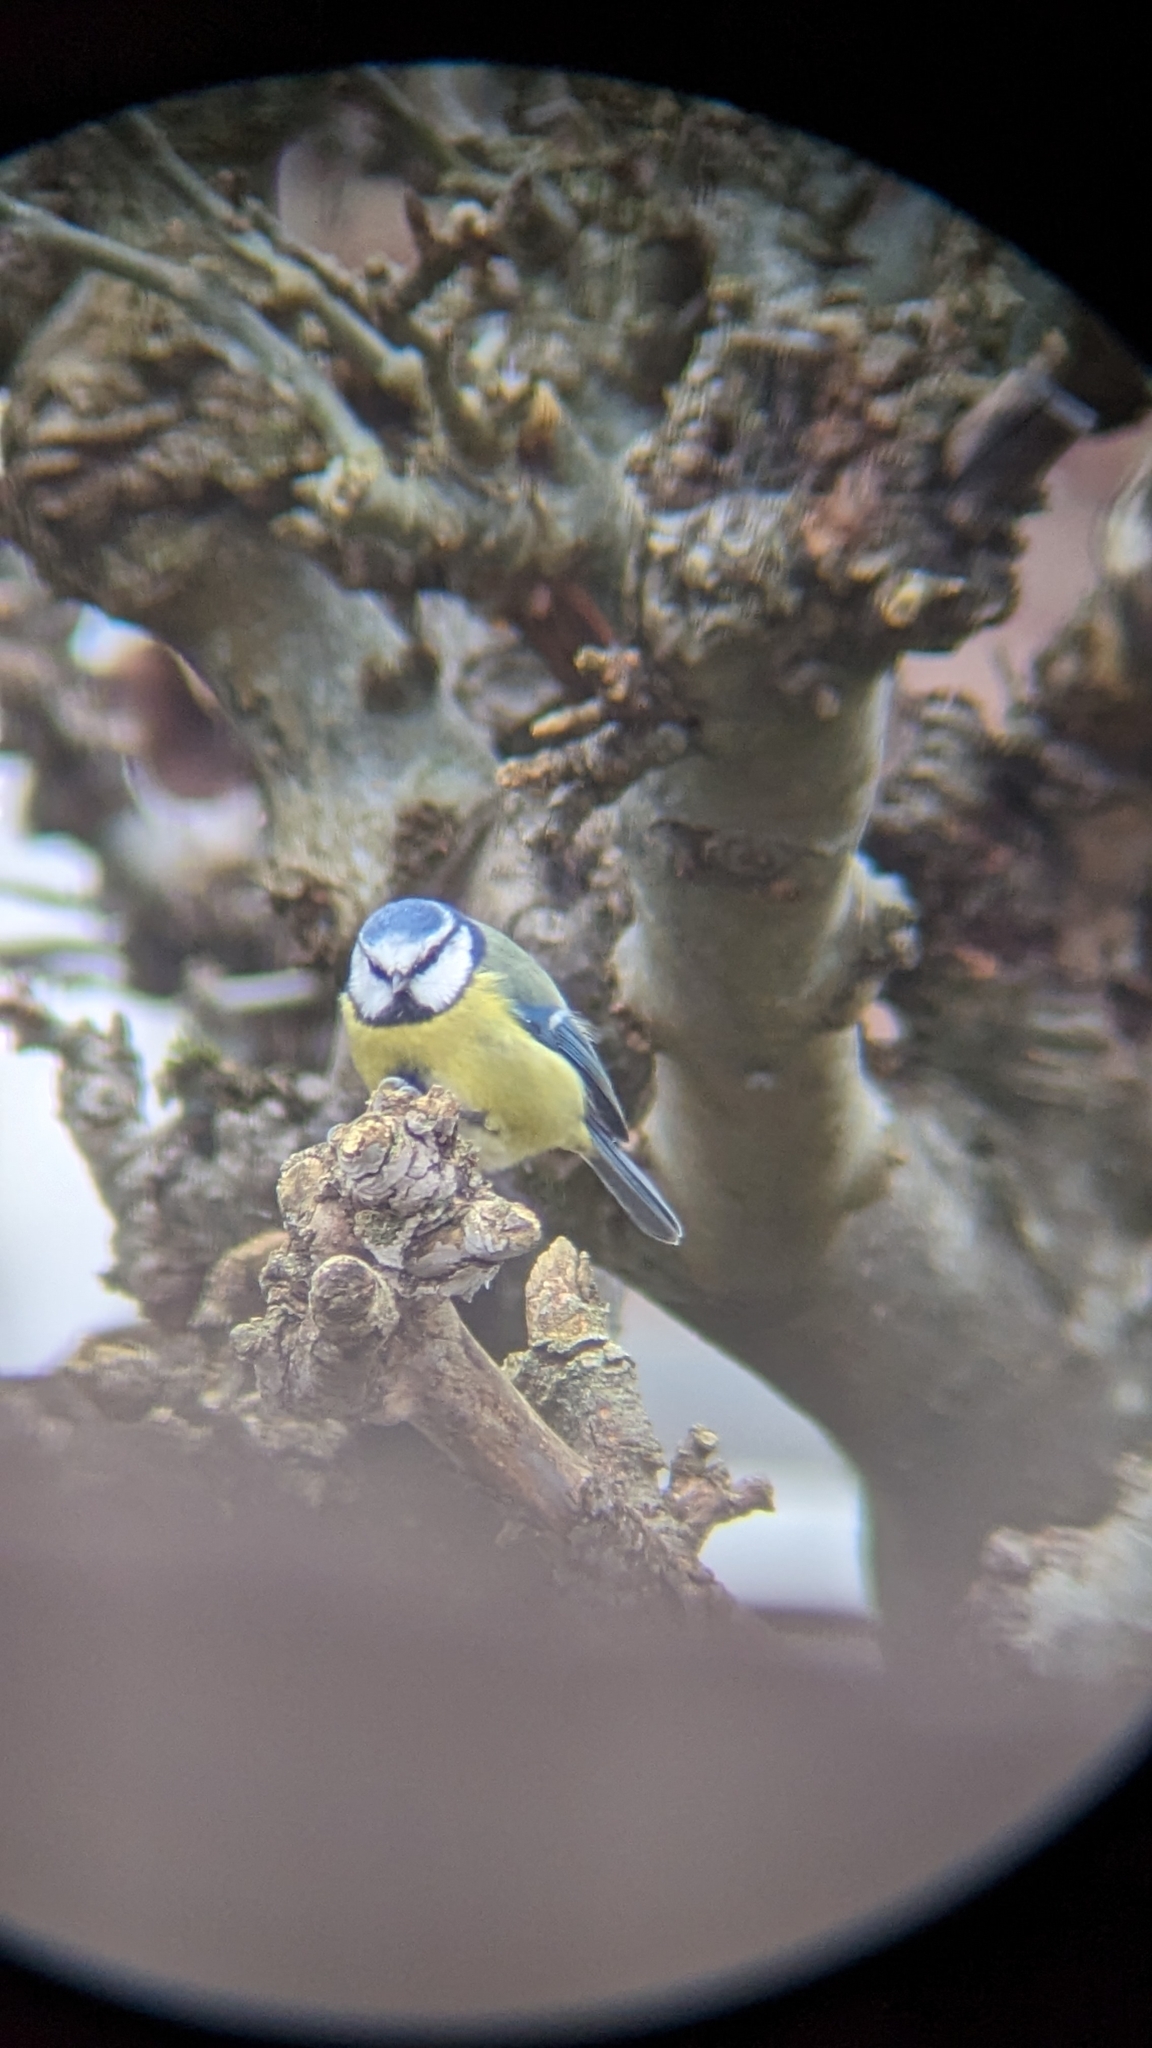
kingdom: Animalia
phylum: Chordata
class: Aves
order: Passeriformes
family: Paridae
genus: Cyanistes
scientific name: Cyanistes caeruleus
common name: Eurasian blue tit
